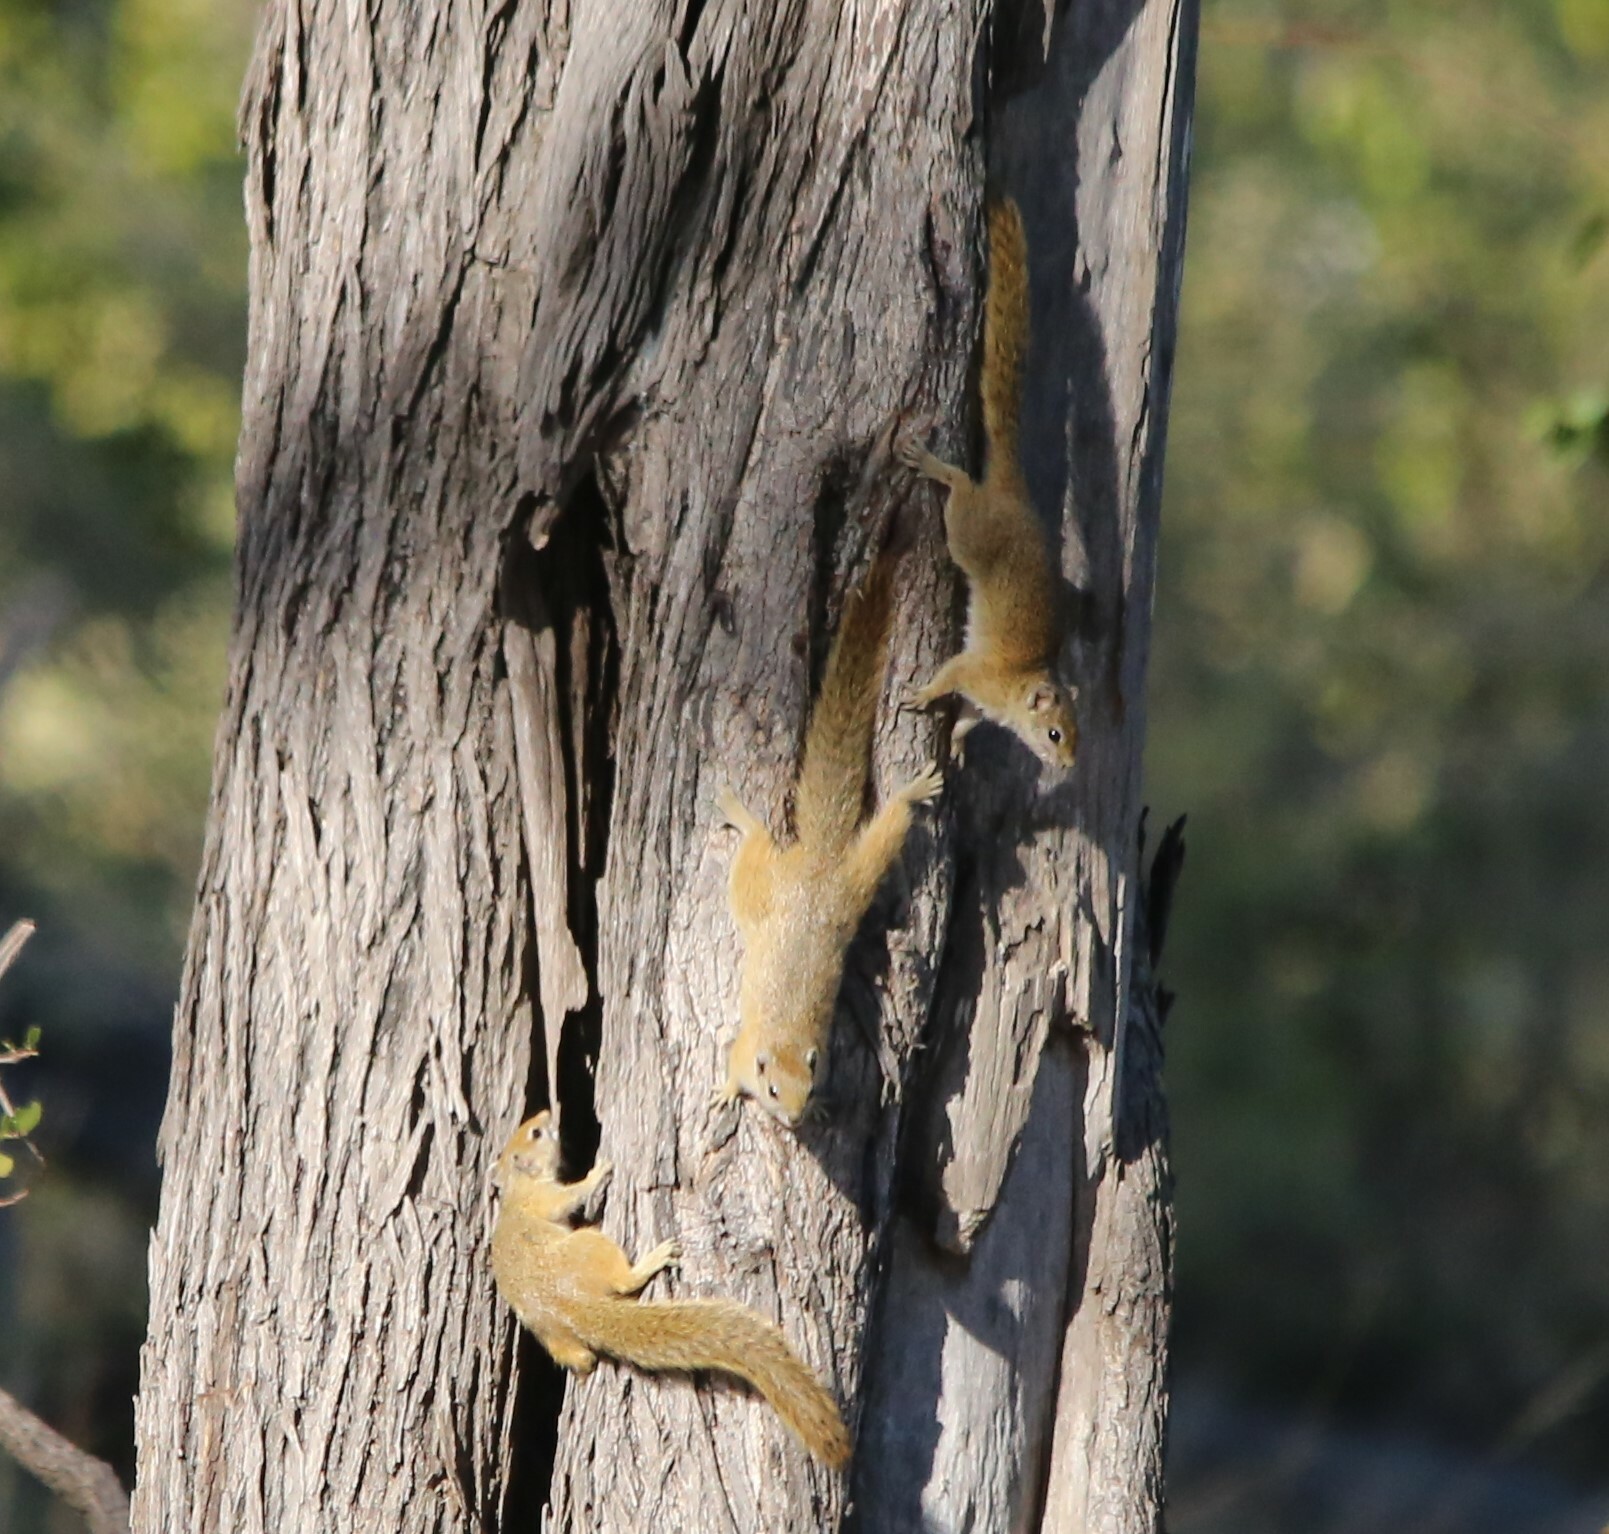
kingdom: Animalia
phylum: Chordata
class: Mammalia
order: Rodentia
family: Sciuridae
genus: Paraxerus
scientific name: Paraxerus cepapi
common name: Smith's bush squirrel
